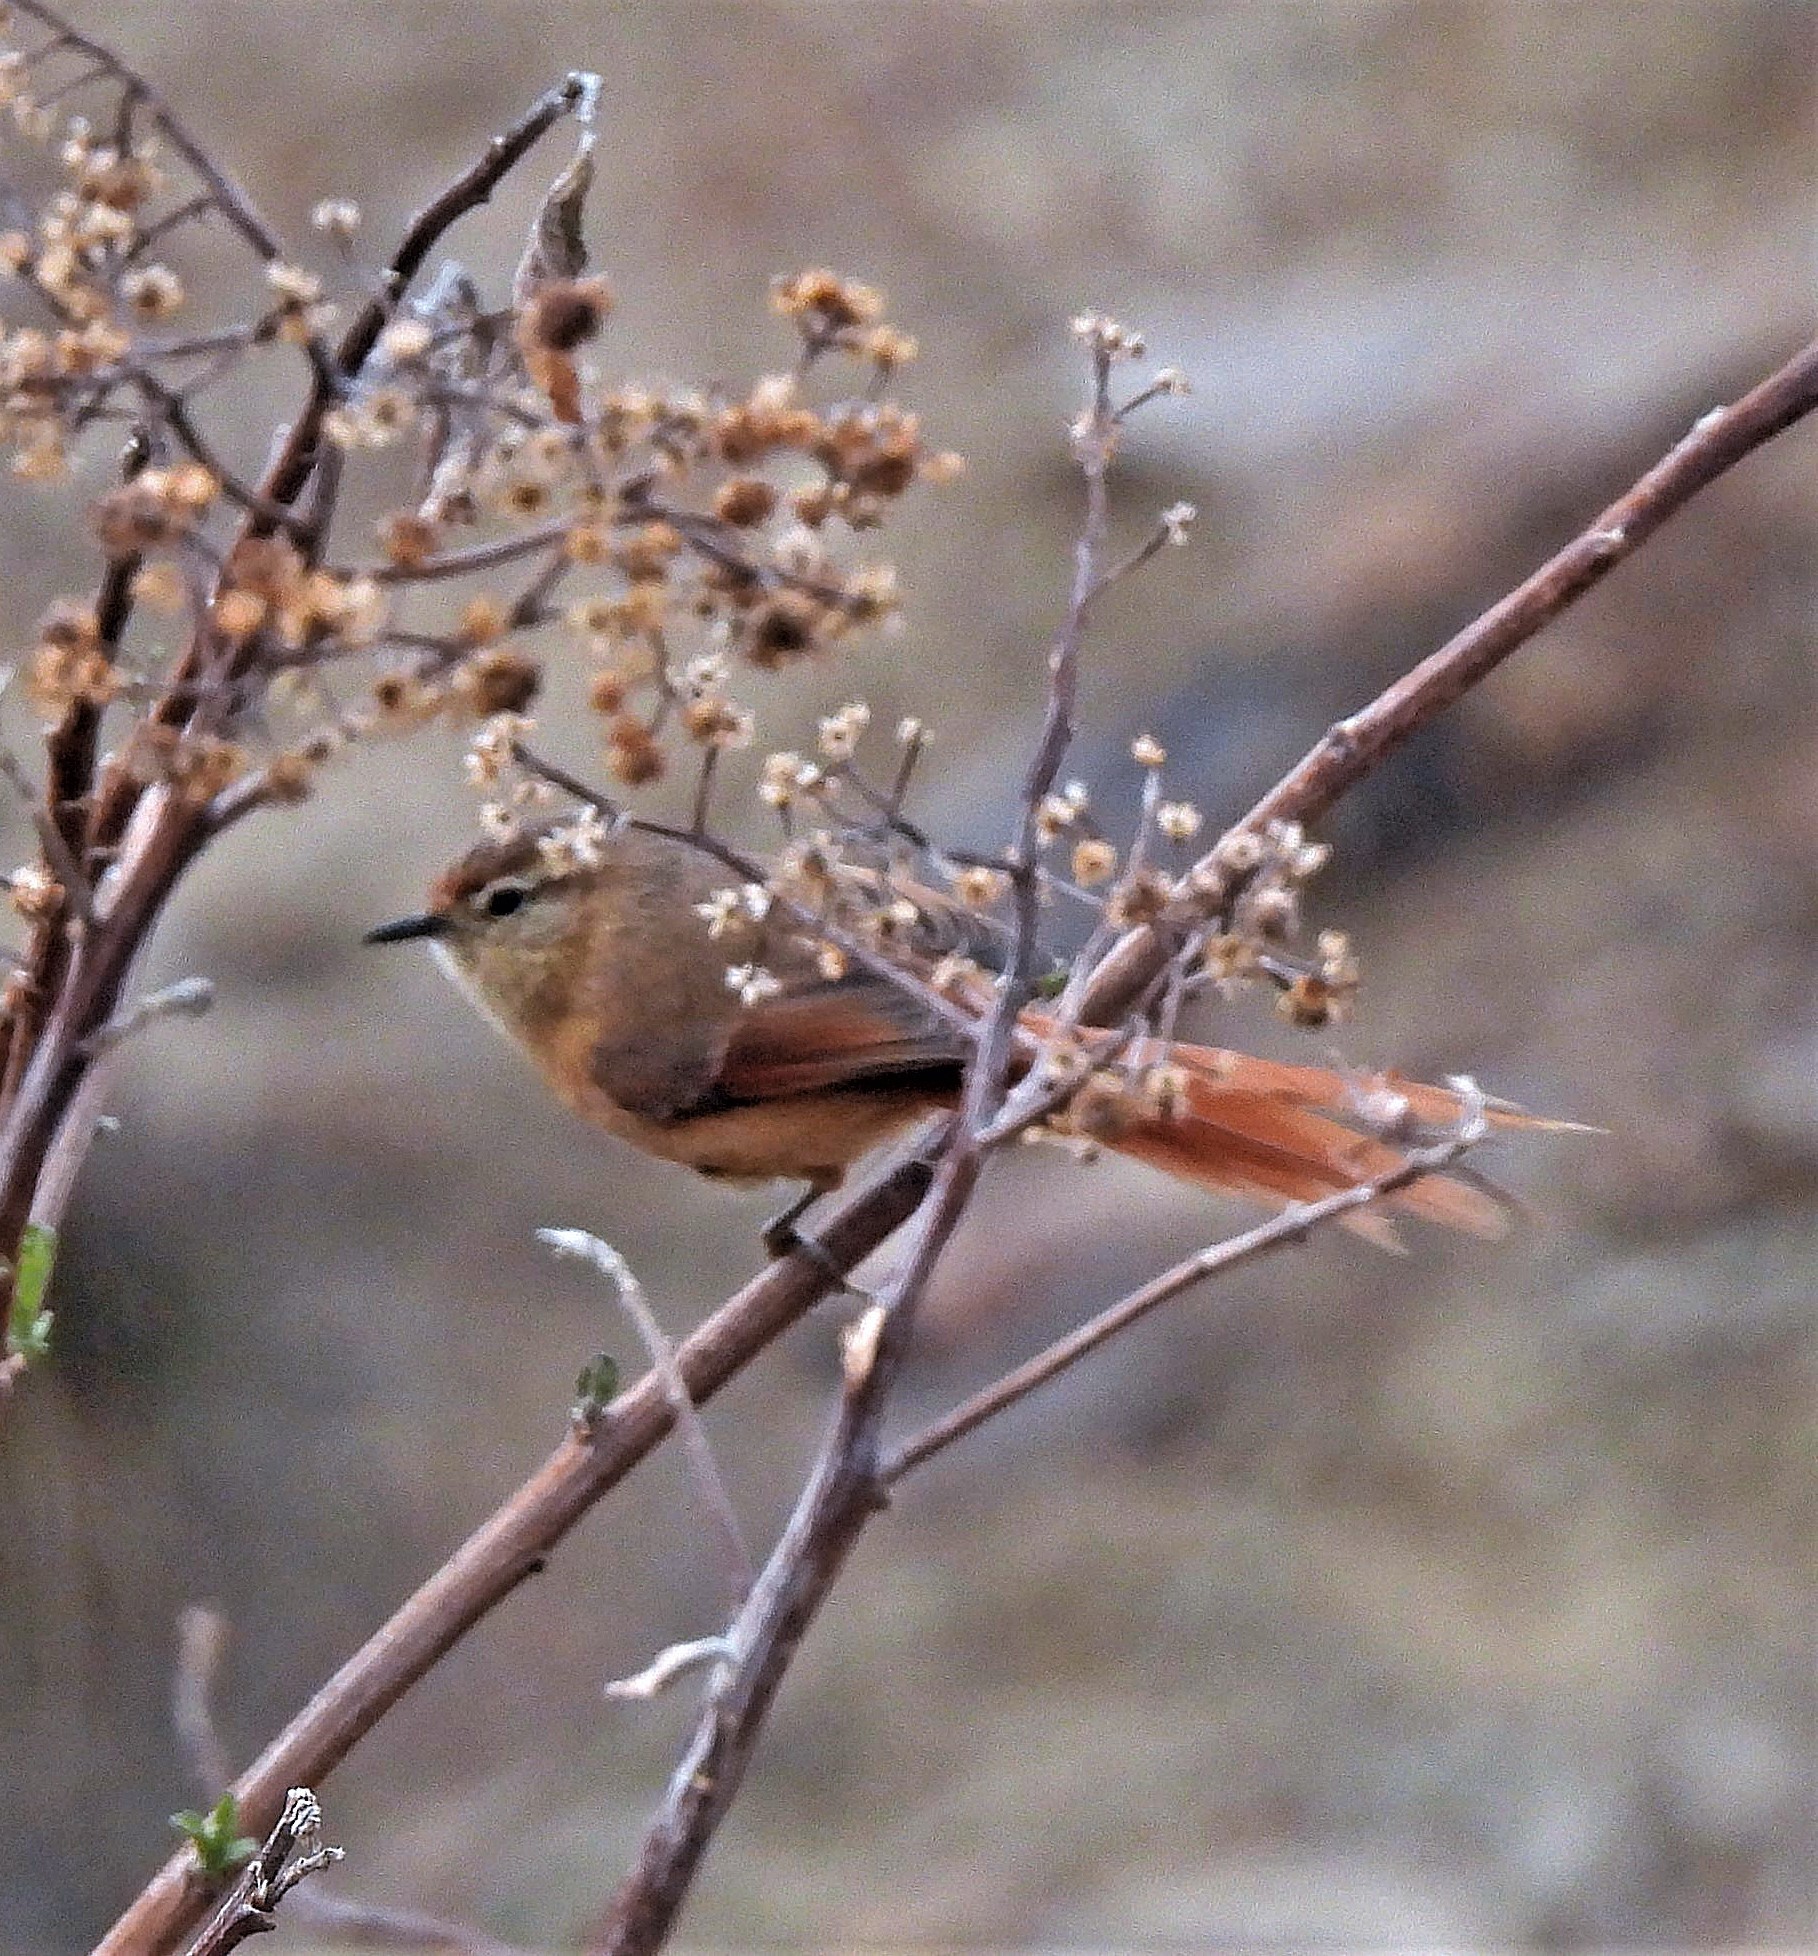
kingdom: Animalia
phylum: Chordata
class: Aves
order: Passeriformes
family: Furnariidae
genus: Leptasthenura
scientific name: Leptasthenura yanacensis
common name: Tawny tit-spinetail
